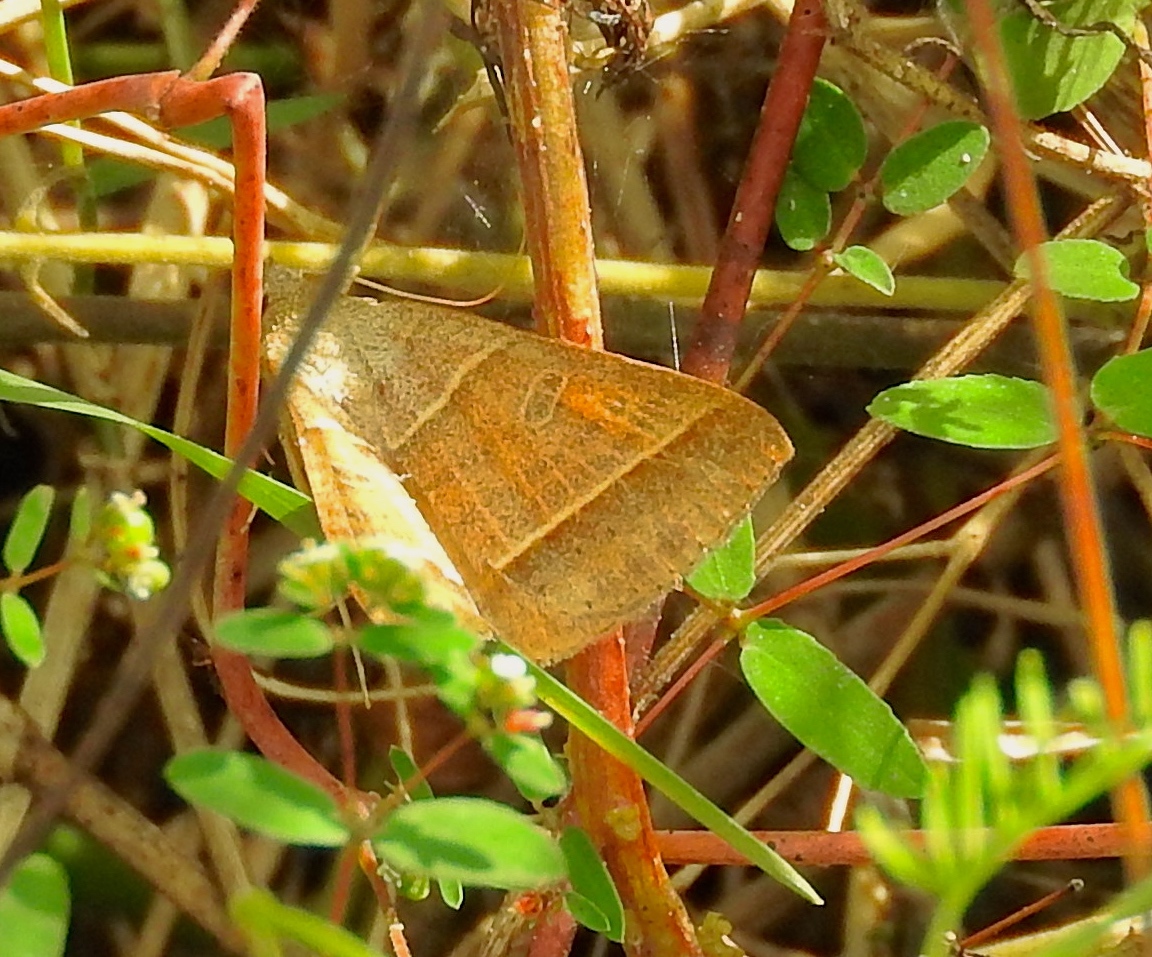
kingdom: Animalia
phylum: Arthropoda
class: Insecta
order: Lepidoptera
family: Erebidae
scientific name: Erebidae
